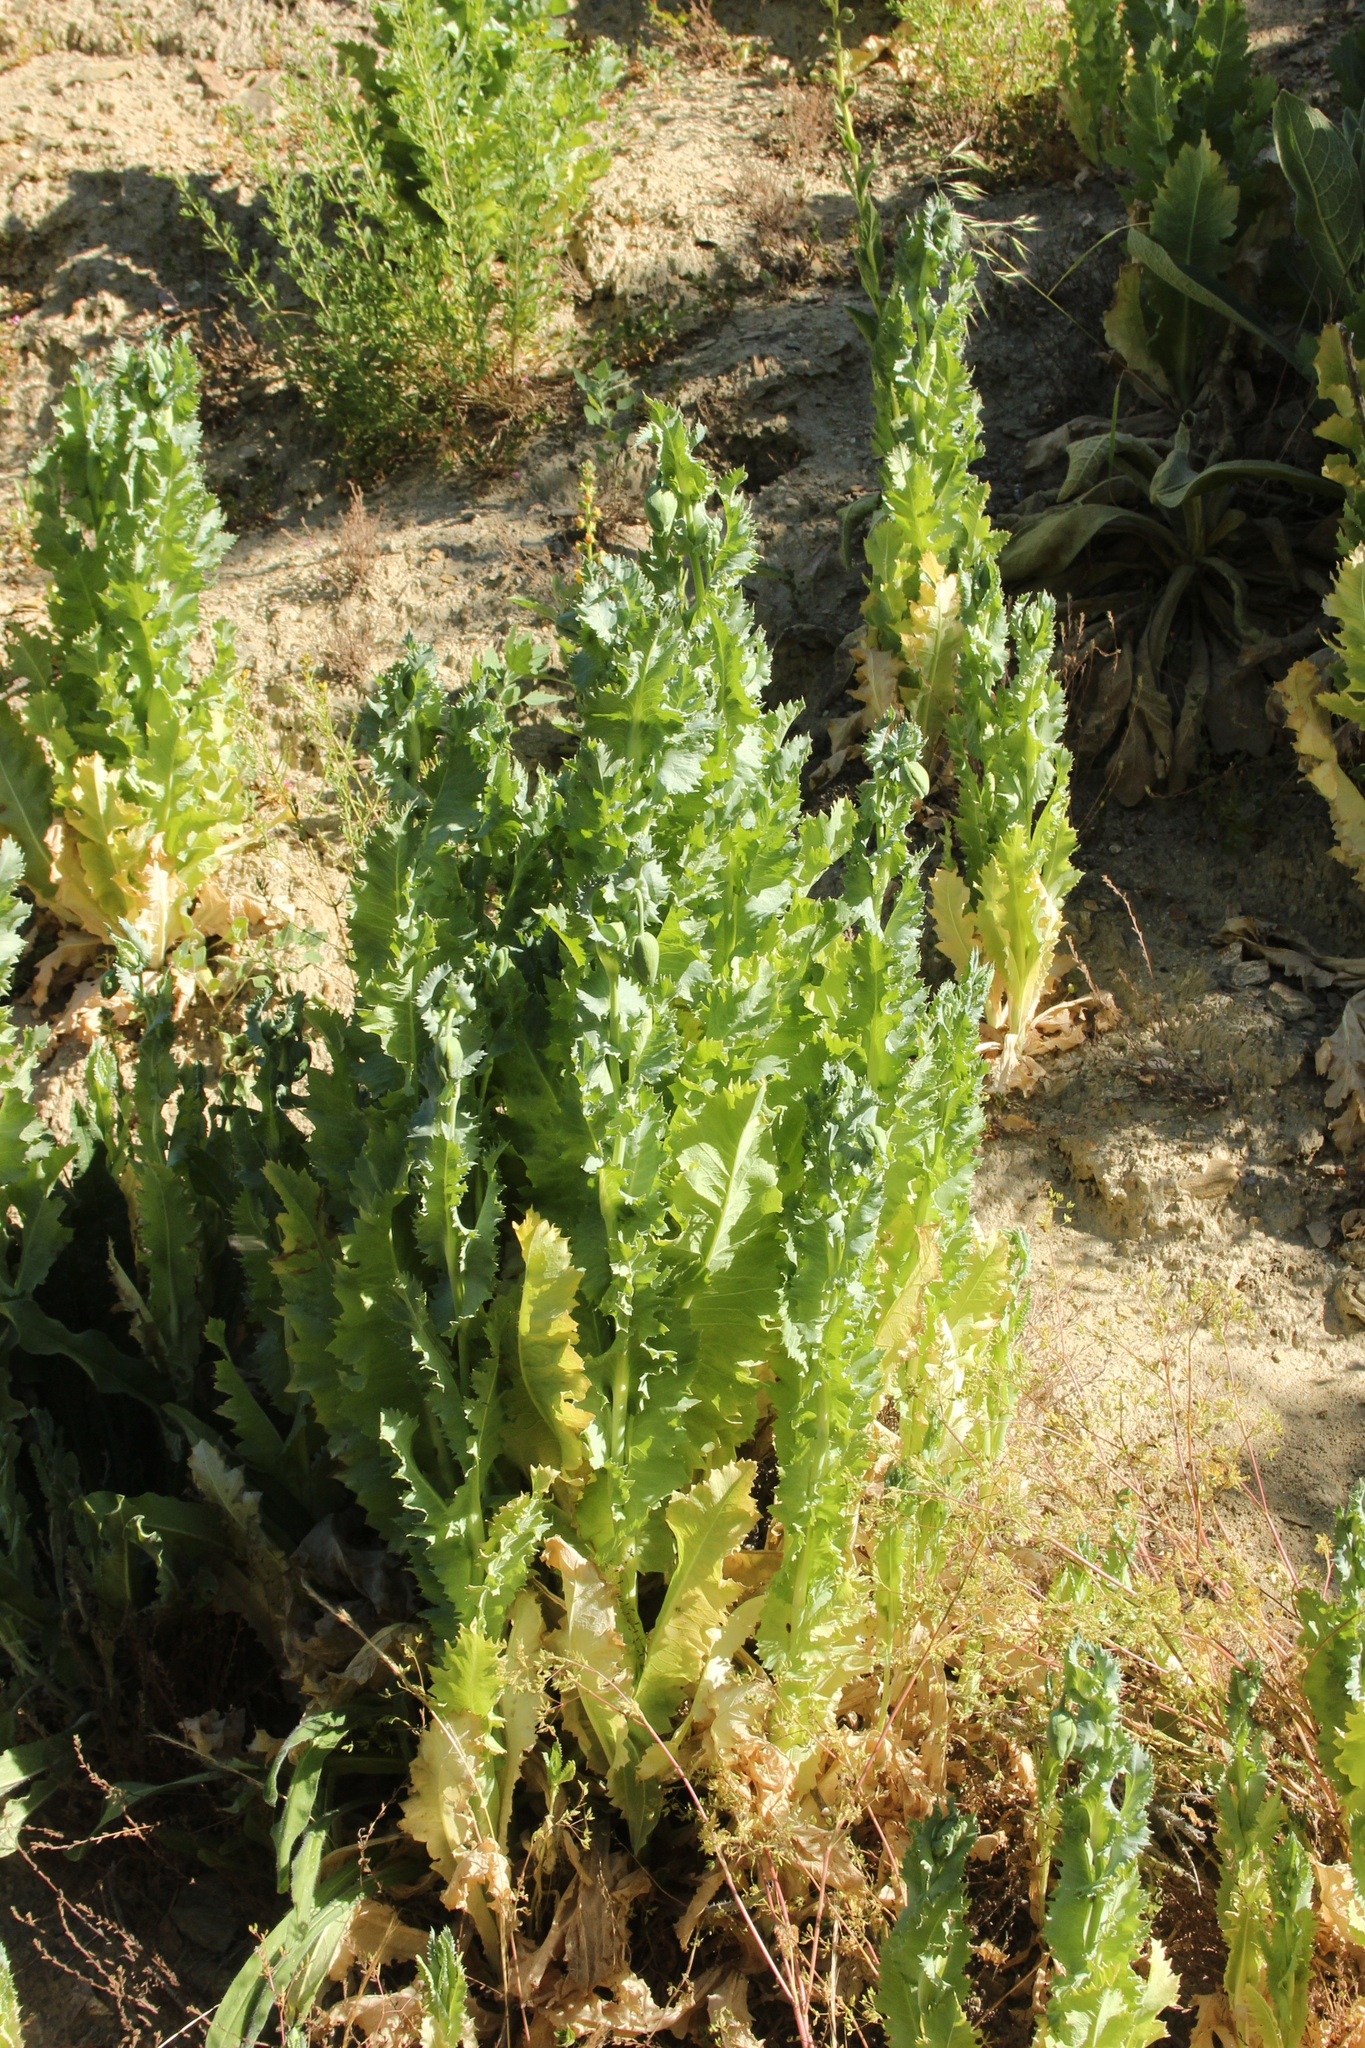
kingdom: Plantae
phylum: Tracheophyta
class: Magnoliopsida
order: Ranunculales
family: Papaveraceae
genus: Papaver
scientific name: Papaver somniferum
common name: Opium poppy
